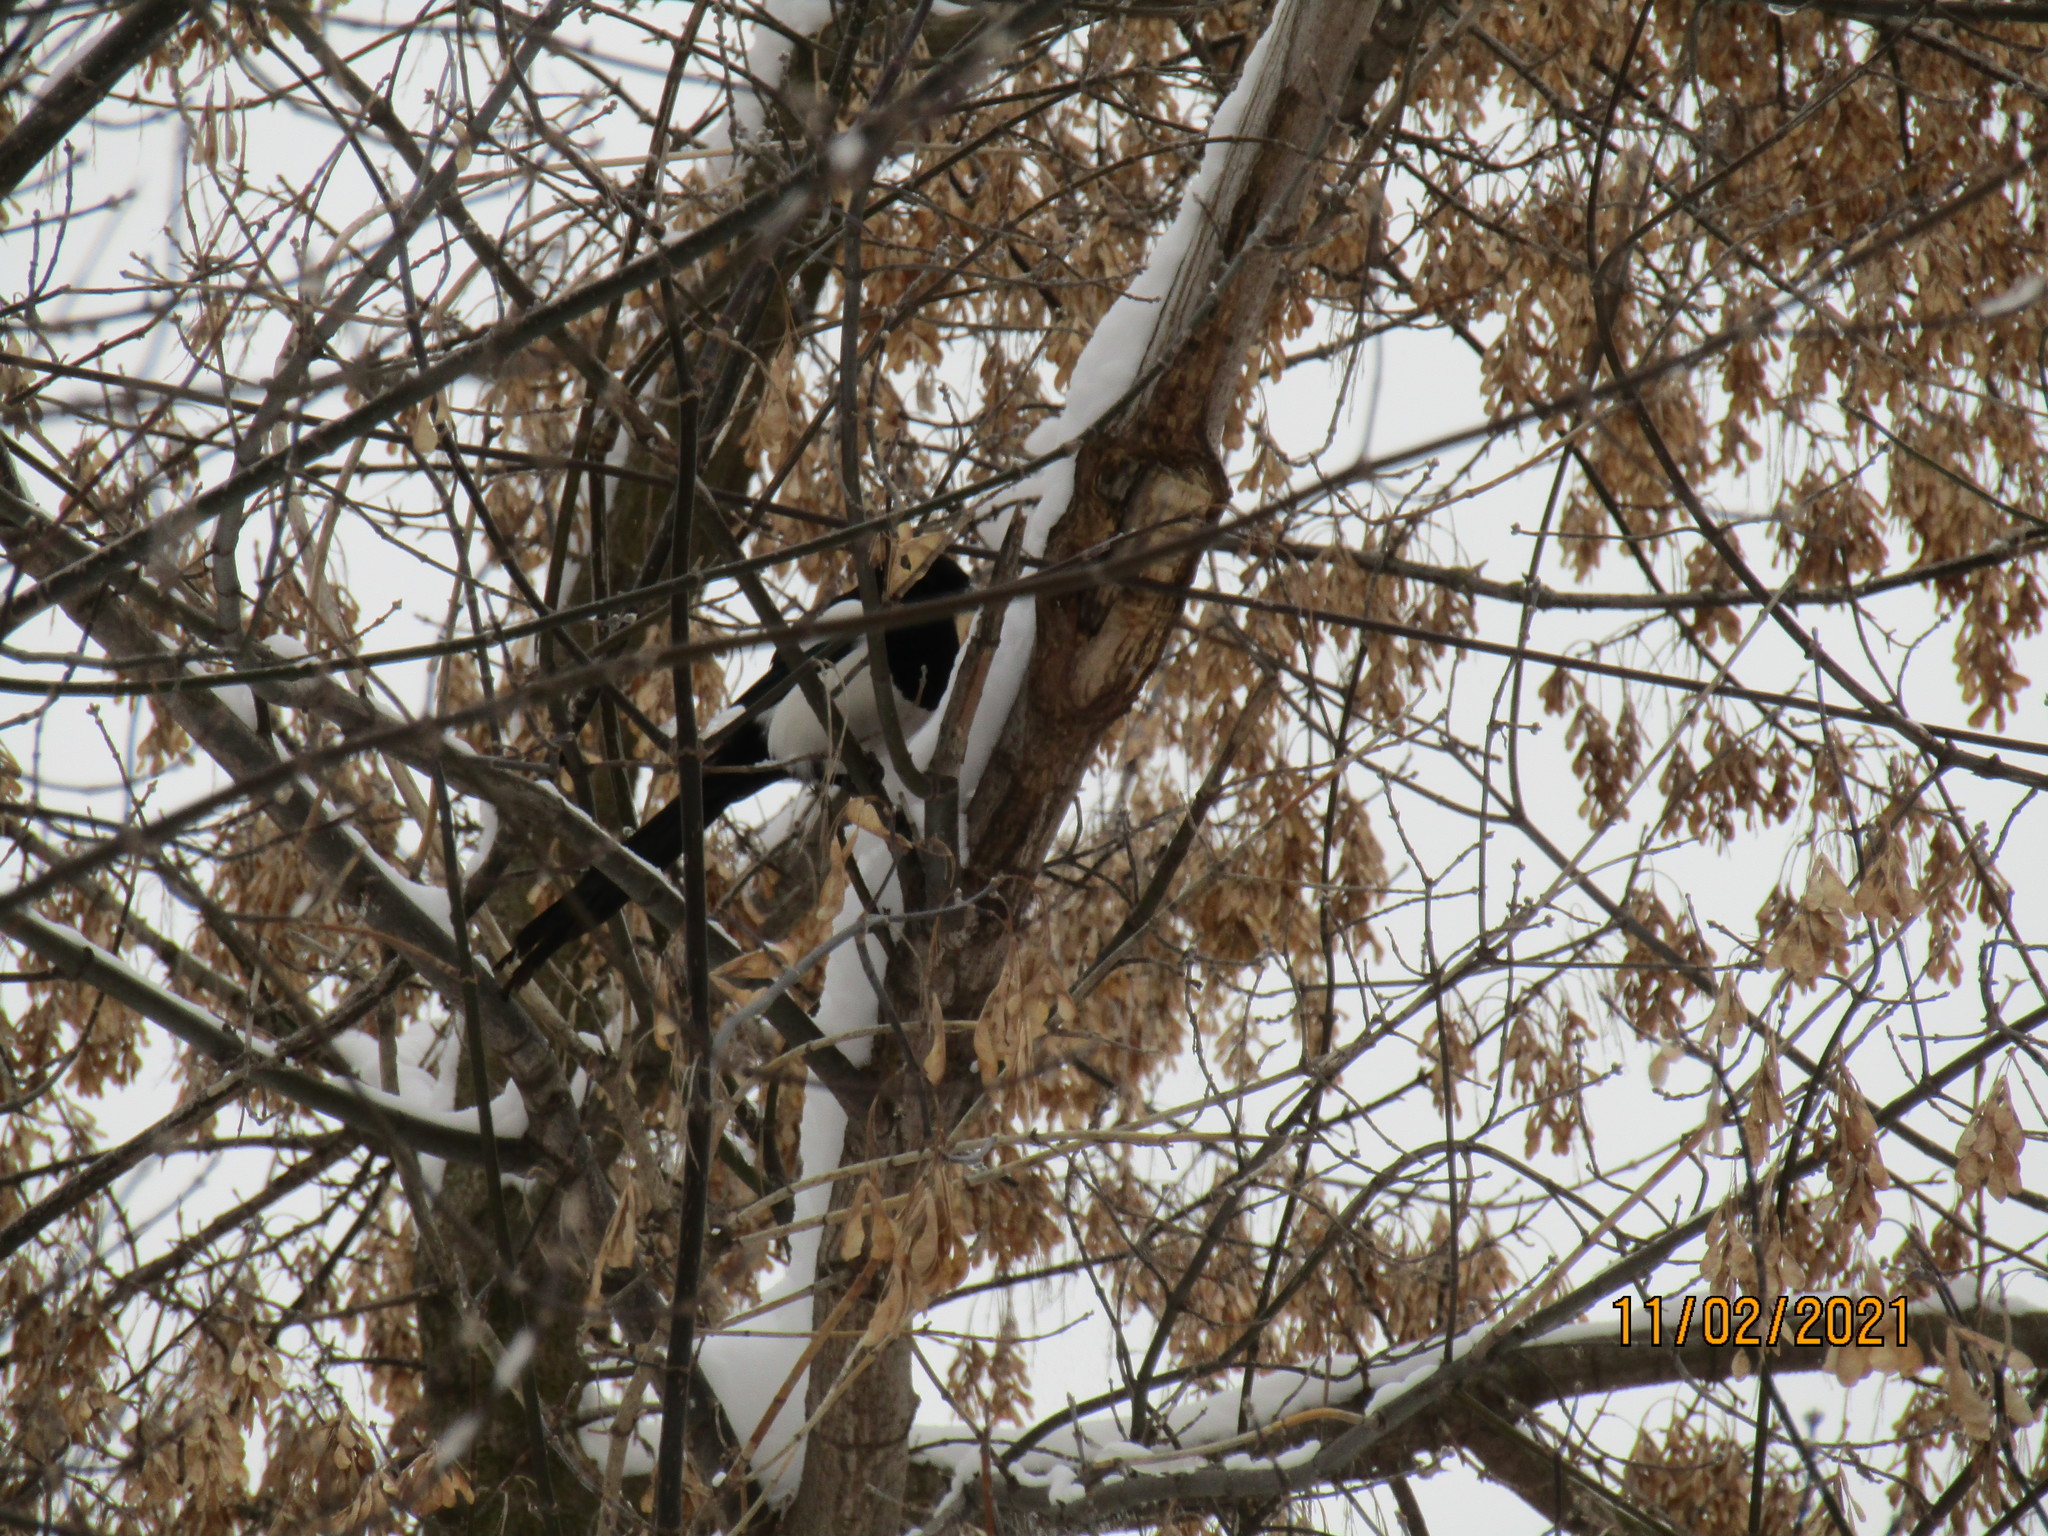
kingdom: Animalia
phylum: Chordata
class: Aves
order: Passeriformes
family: Corvidae
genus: Pica
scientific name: Pica pica
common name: Eurasian magpie
